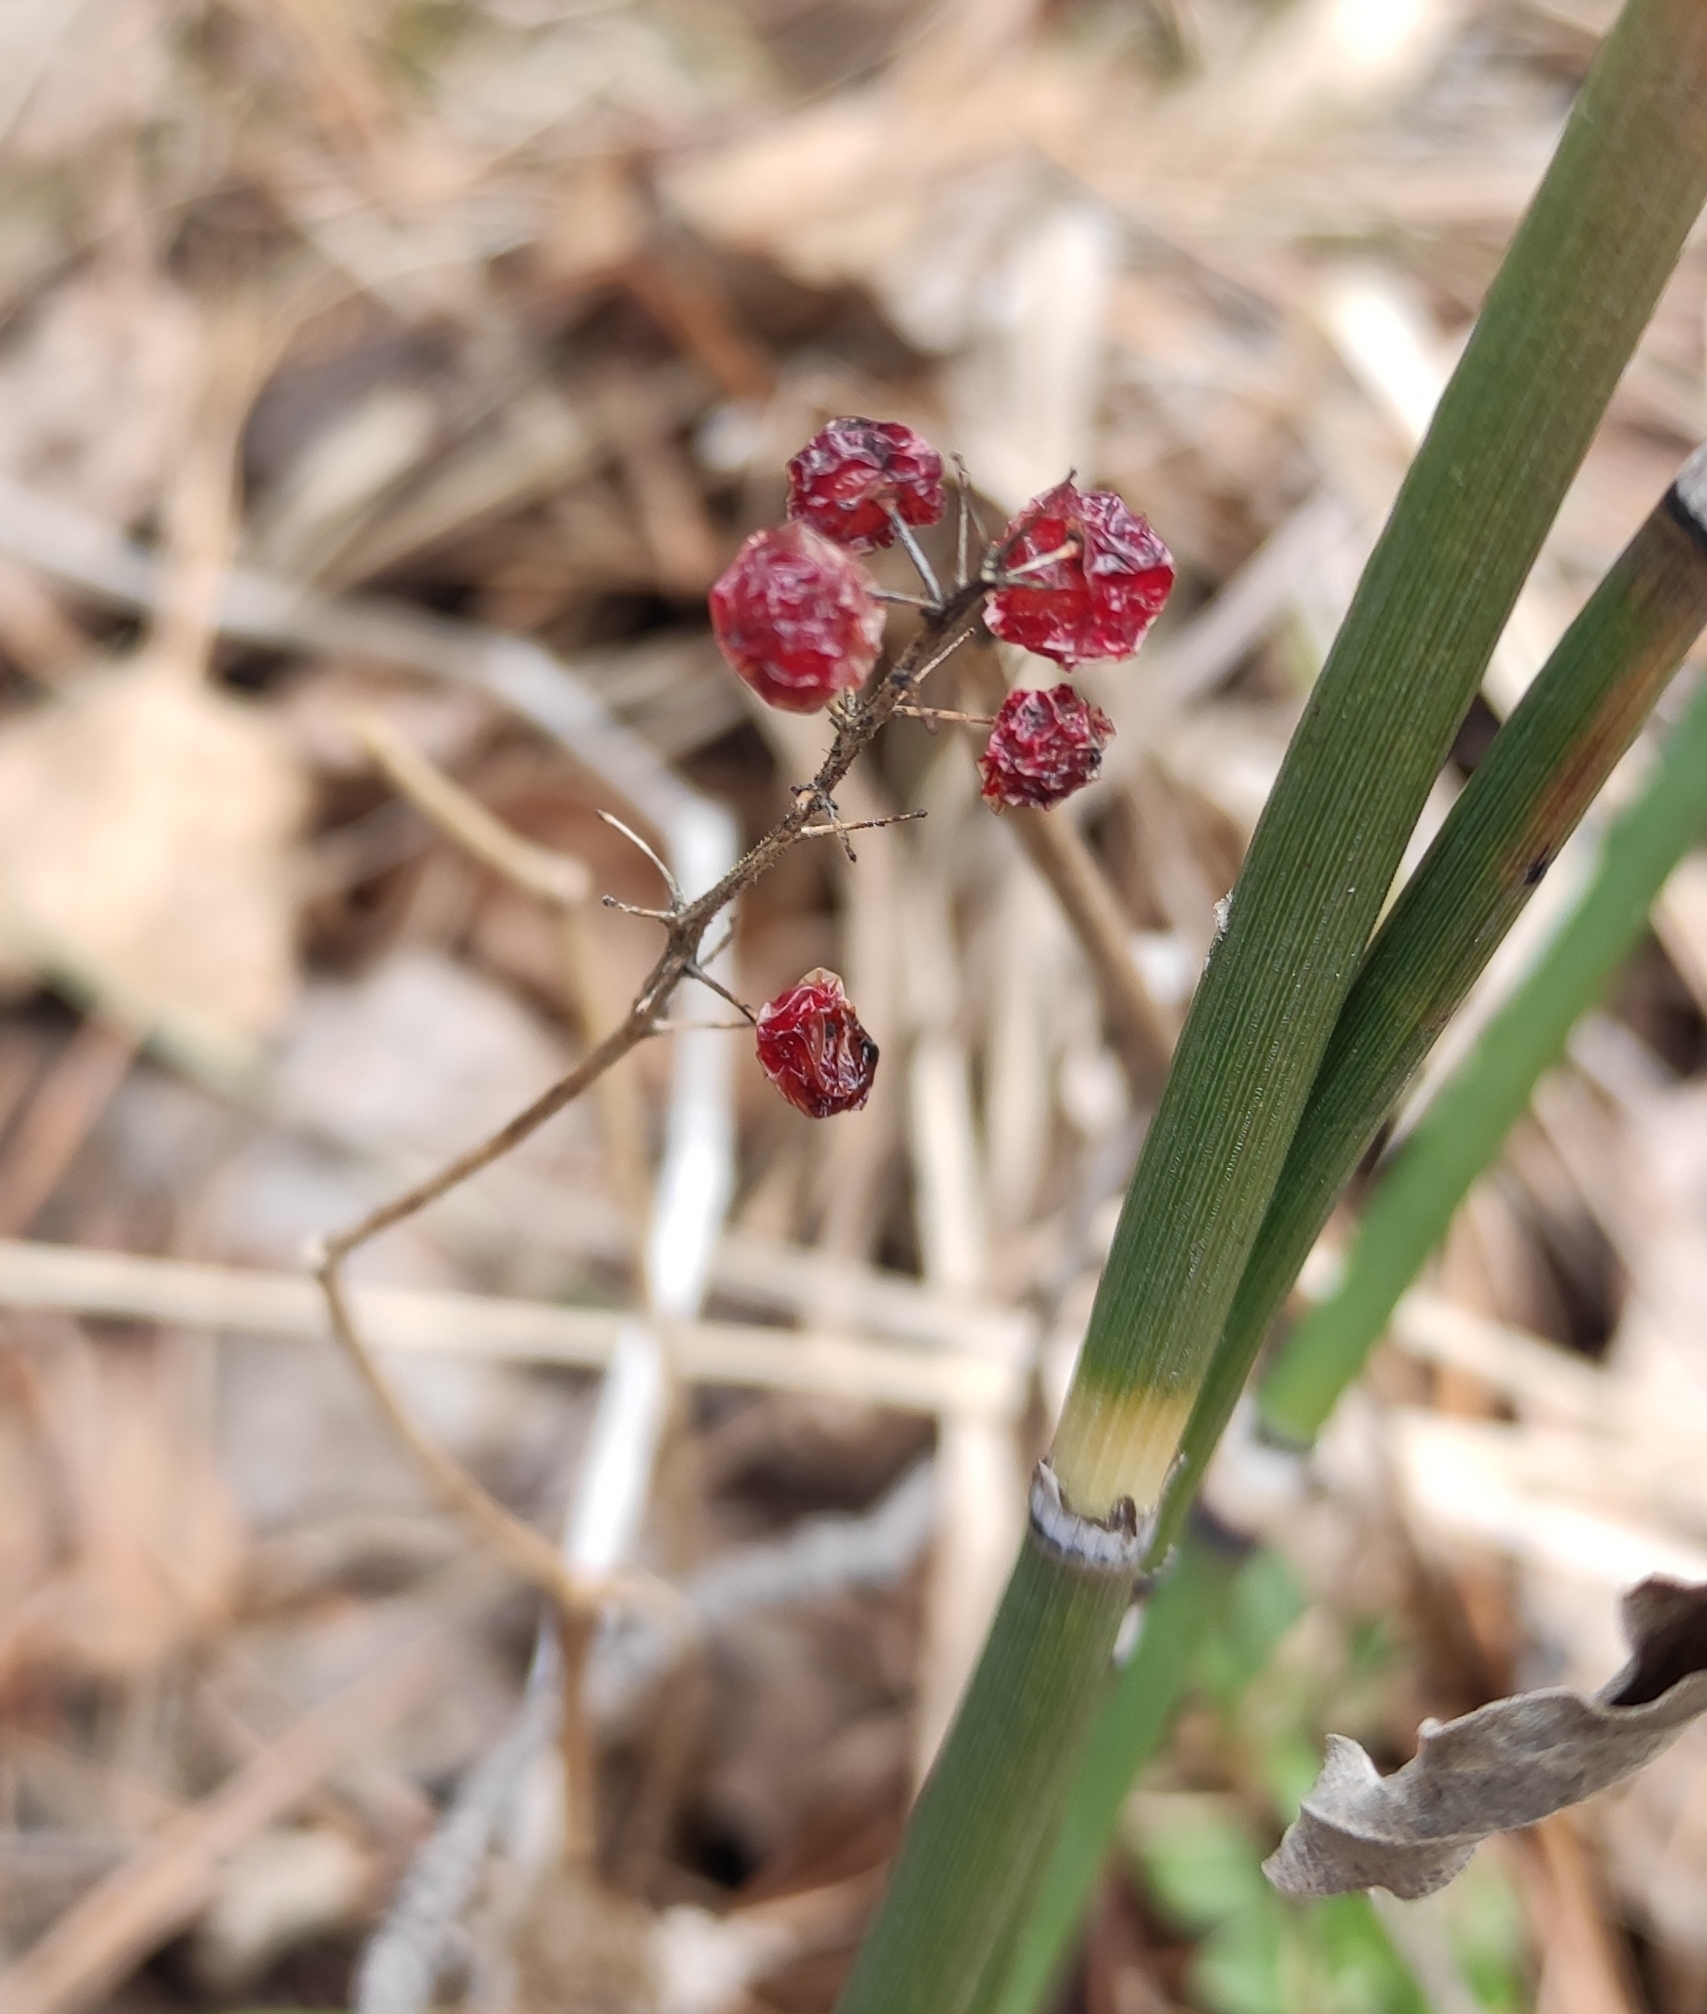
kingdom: Plantae
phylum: Tracheophyta
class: Liliopsida
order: Asparagales
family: Asparagaceae
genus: Maianthemum
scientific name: Maianthemum bifolium
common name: May lily
